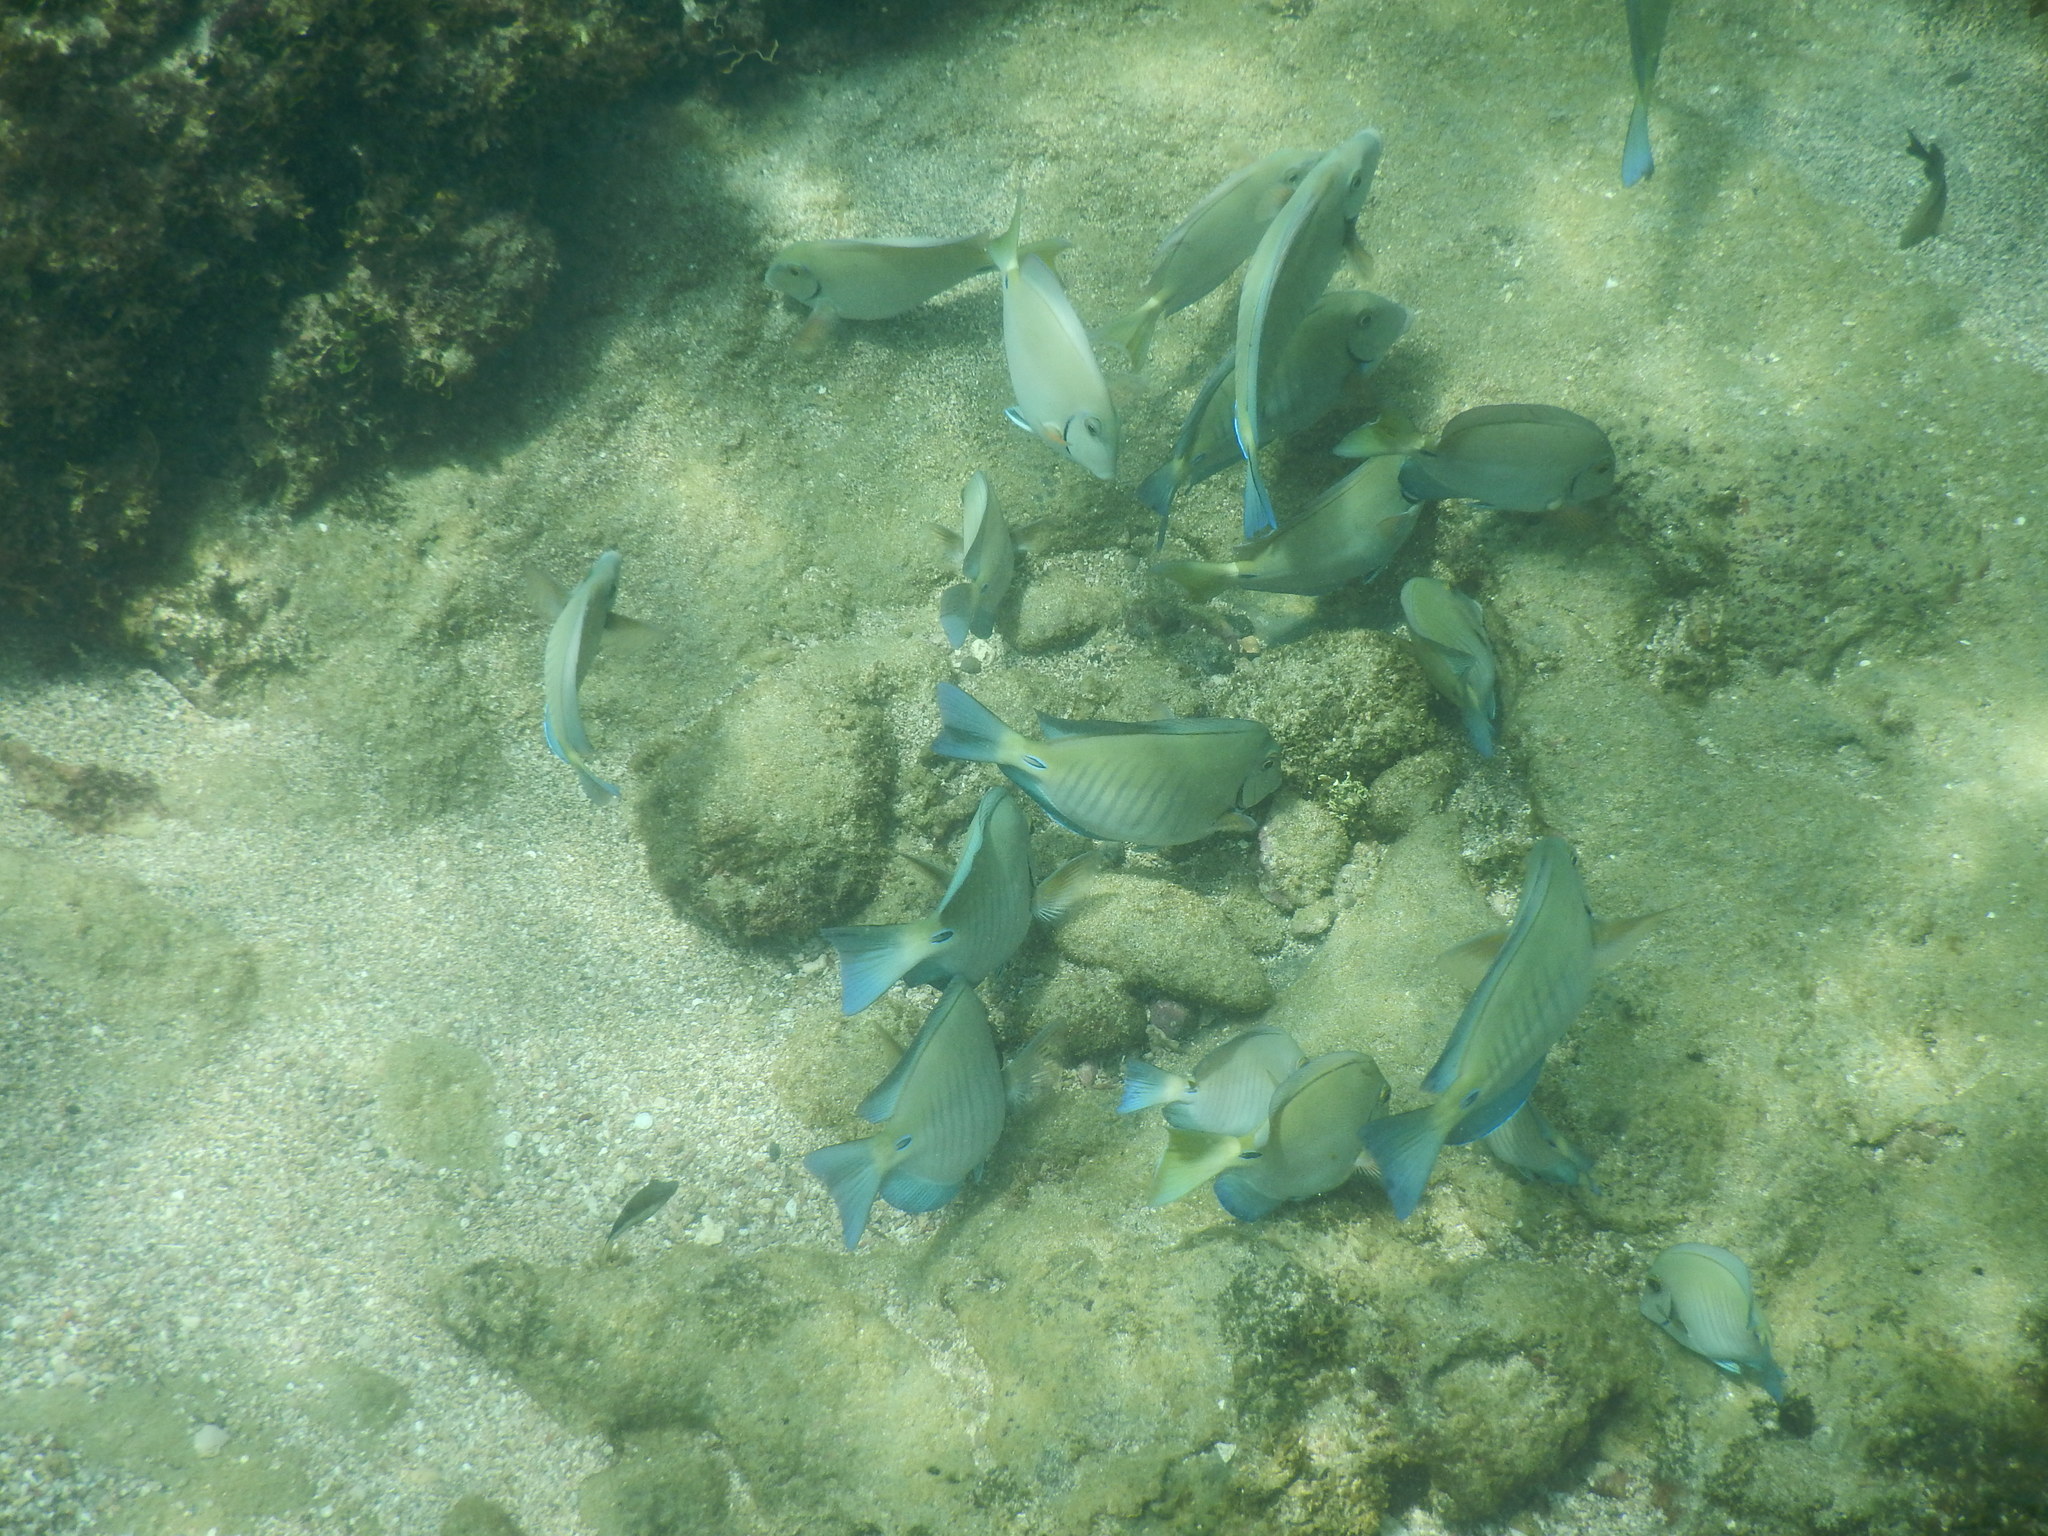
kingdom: Animalia
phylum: Chordata
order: Perciformes
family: Acanthuridae
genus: Acanthurus
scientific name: Acanthurus chirurgus
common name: Doctorfish
